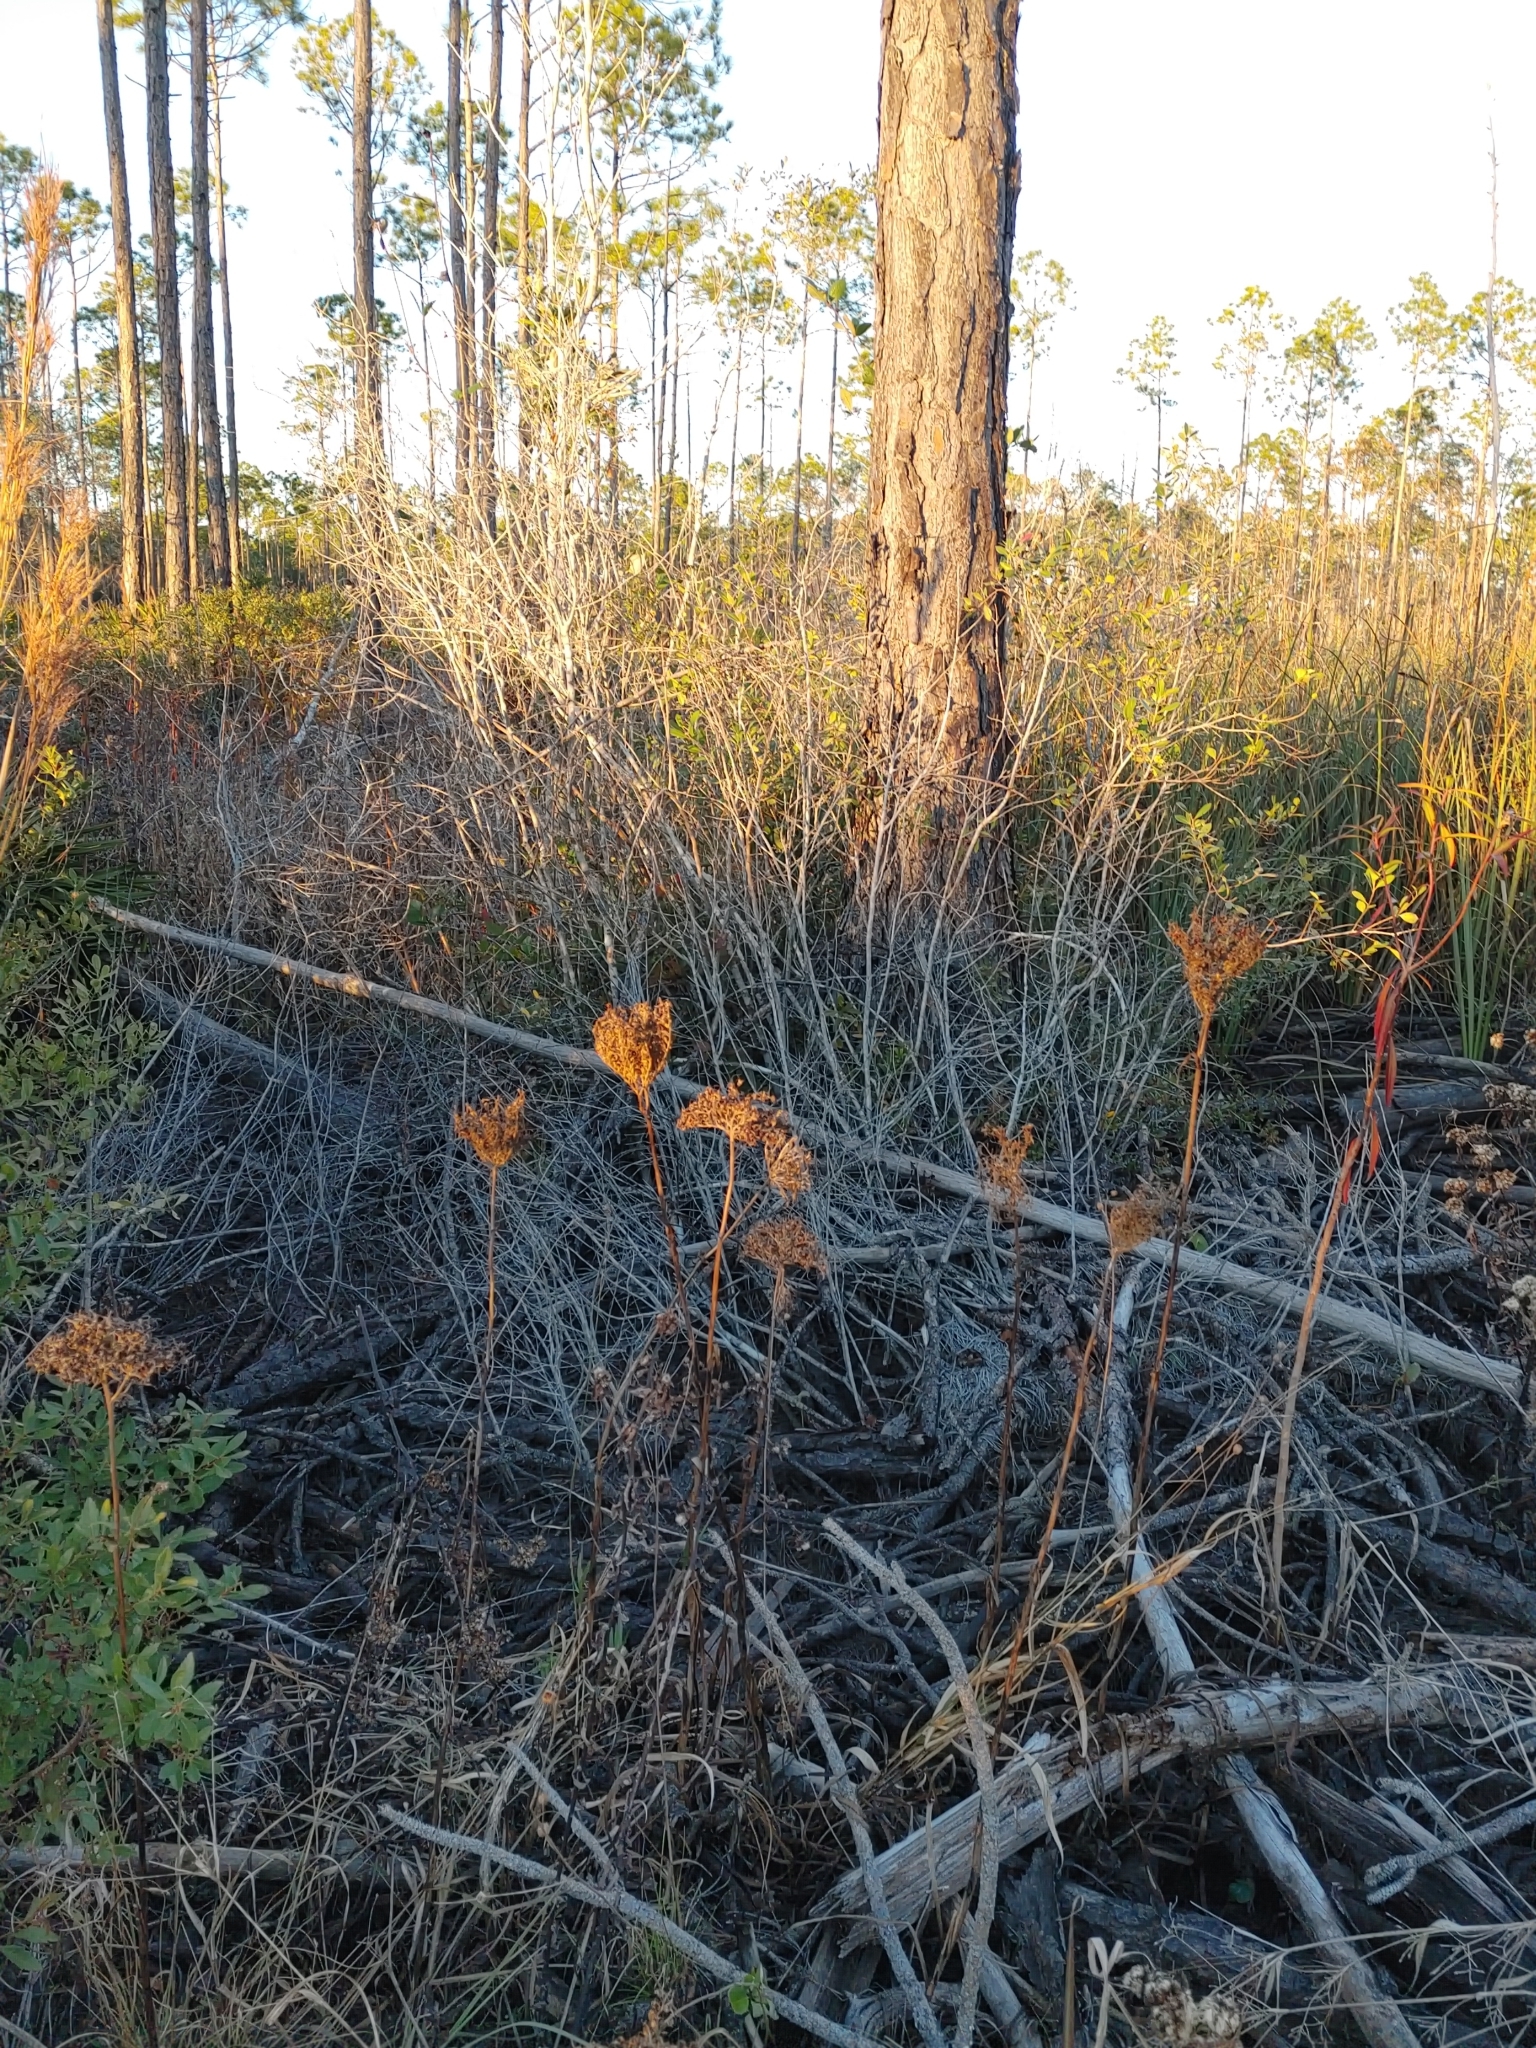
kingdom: Plantae
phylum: Tracheophyta
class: Liliopsida
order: Commelinales
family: Haemodoraceae
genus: Lachnanthes
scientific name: Lachnanthes caroliana
